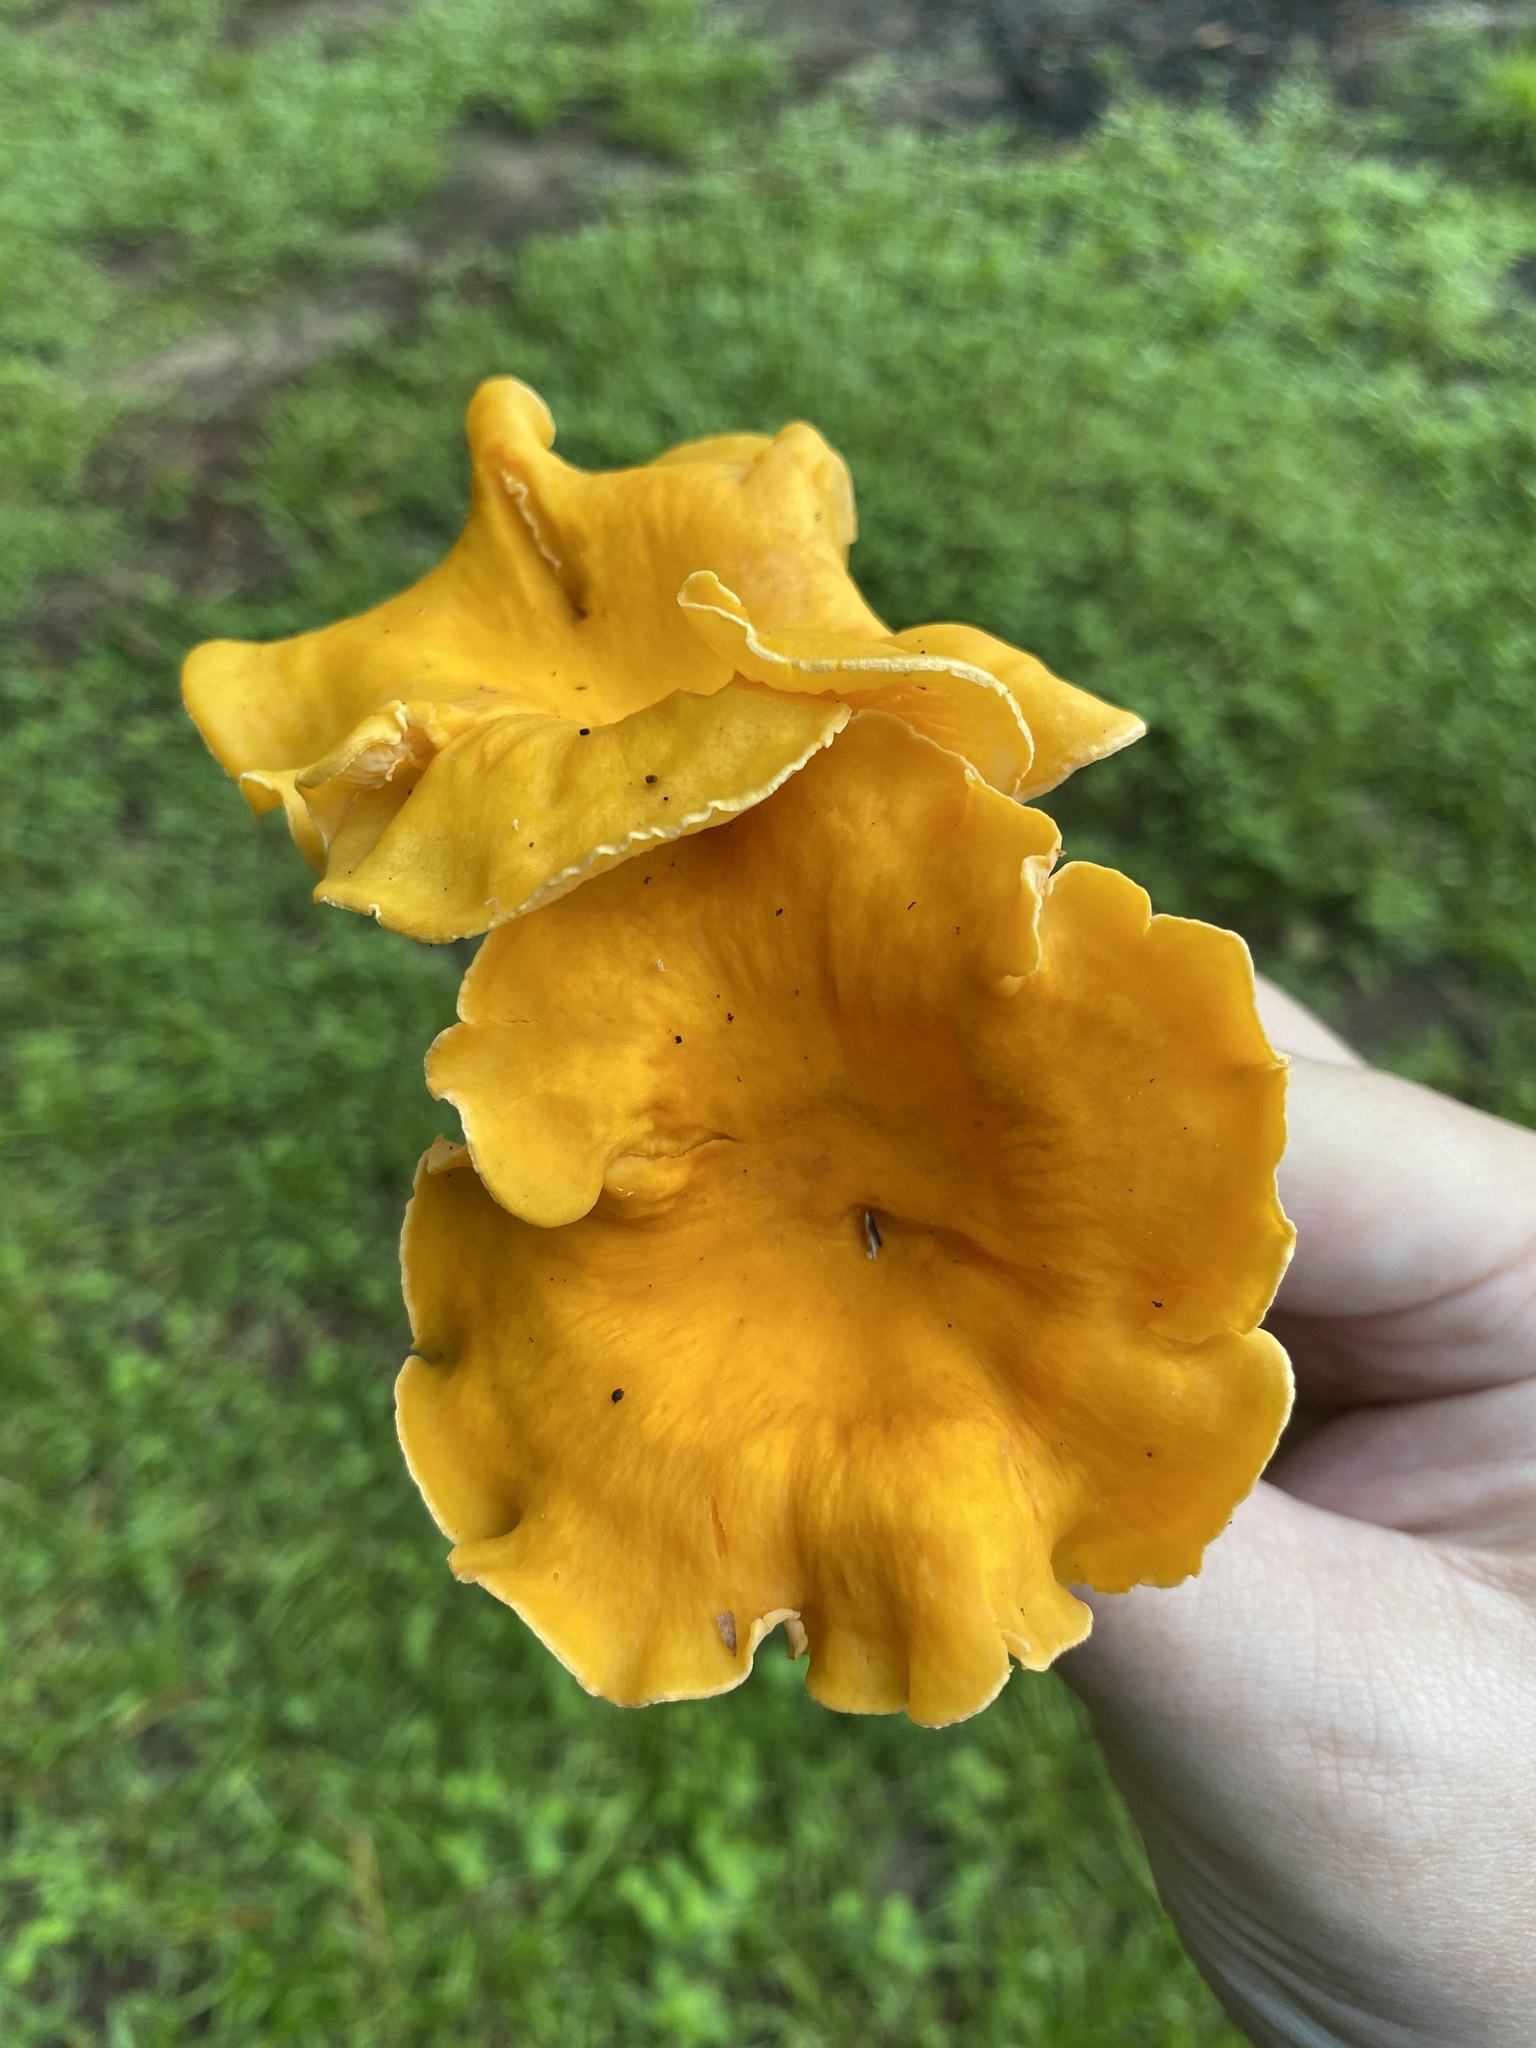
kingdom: Fungi
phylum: Basidiomycota
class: Agaricomycetes
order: Cantharellales
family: Hydnaceae
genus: Cantharellus
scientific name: Cantharellus lateritius
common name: Smooth chanterelle
